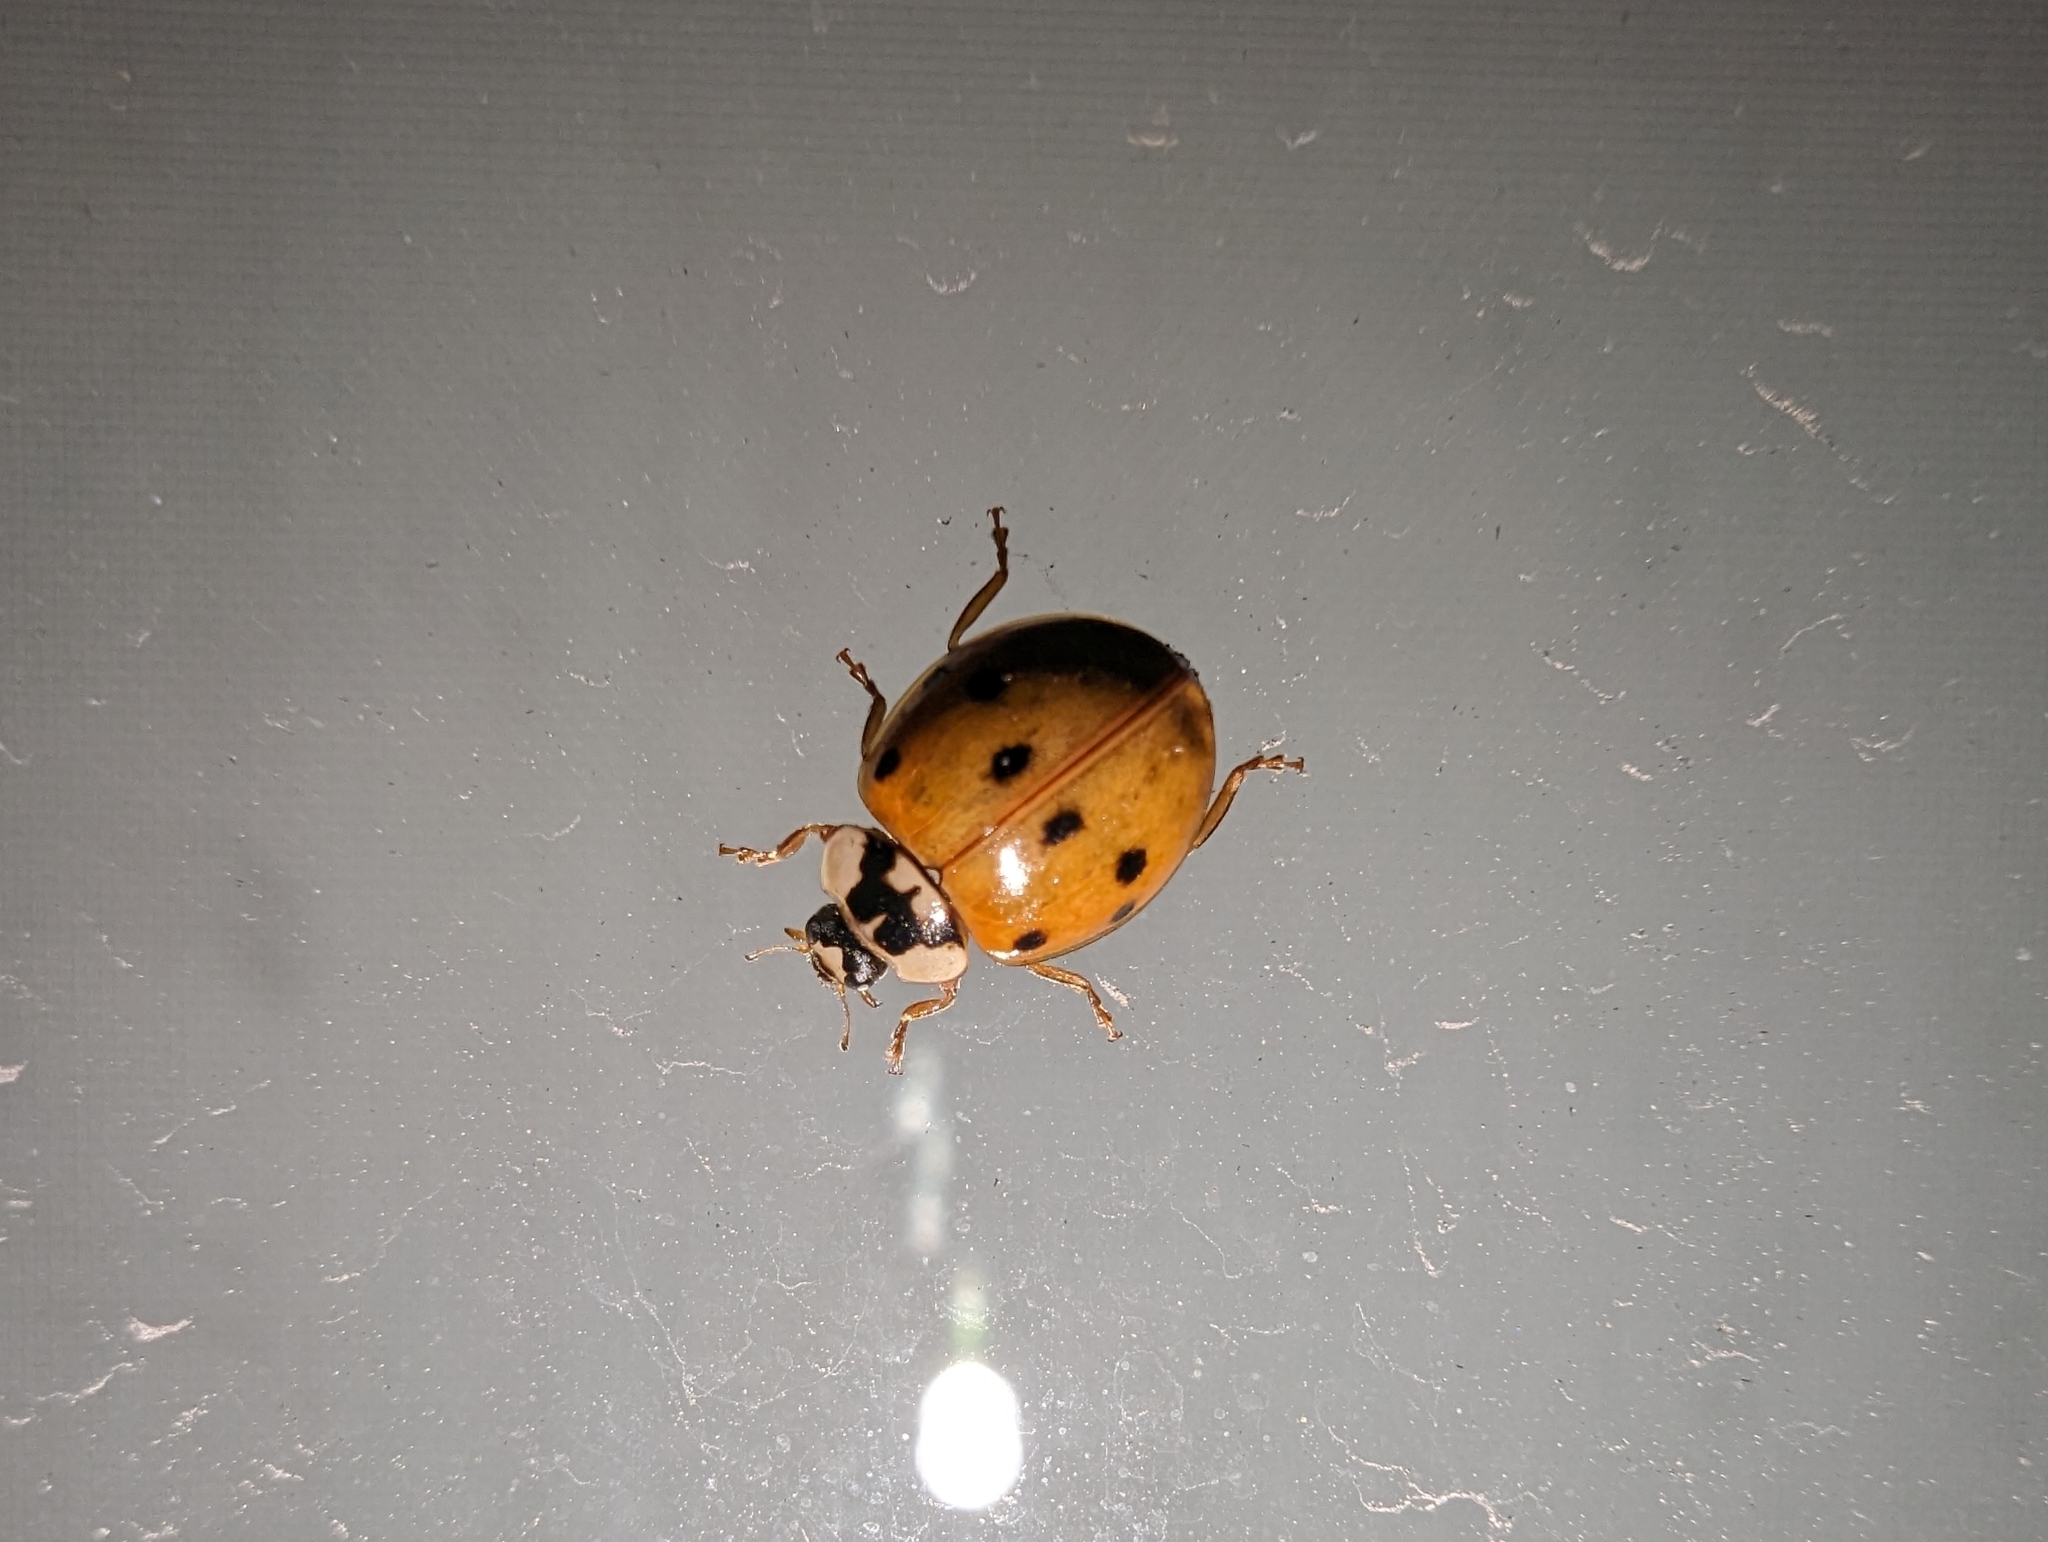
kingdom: Animalia
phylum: Arthropoda
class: Insecta
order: Coleoptera
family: Coccinellidae
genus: Harmonia
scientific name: Harmonia axyridis
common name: Harlequin ladybird
